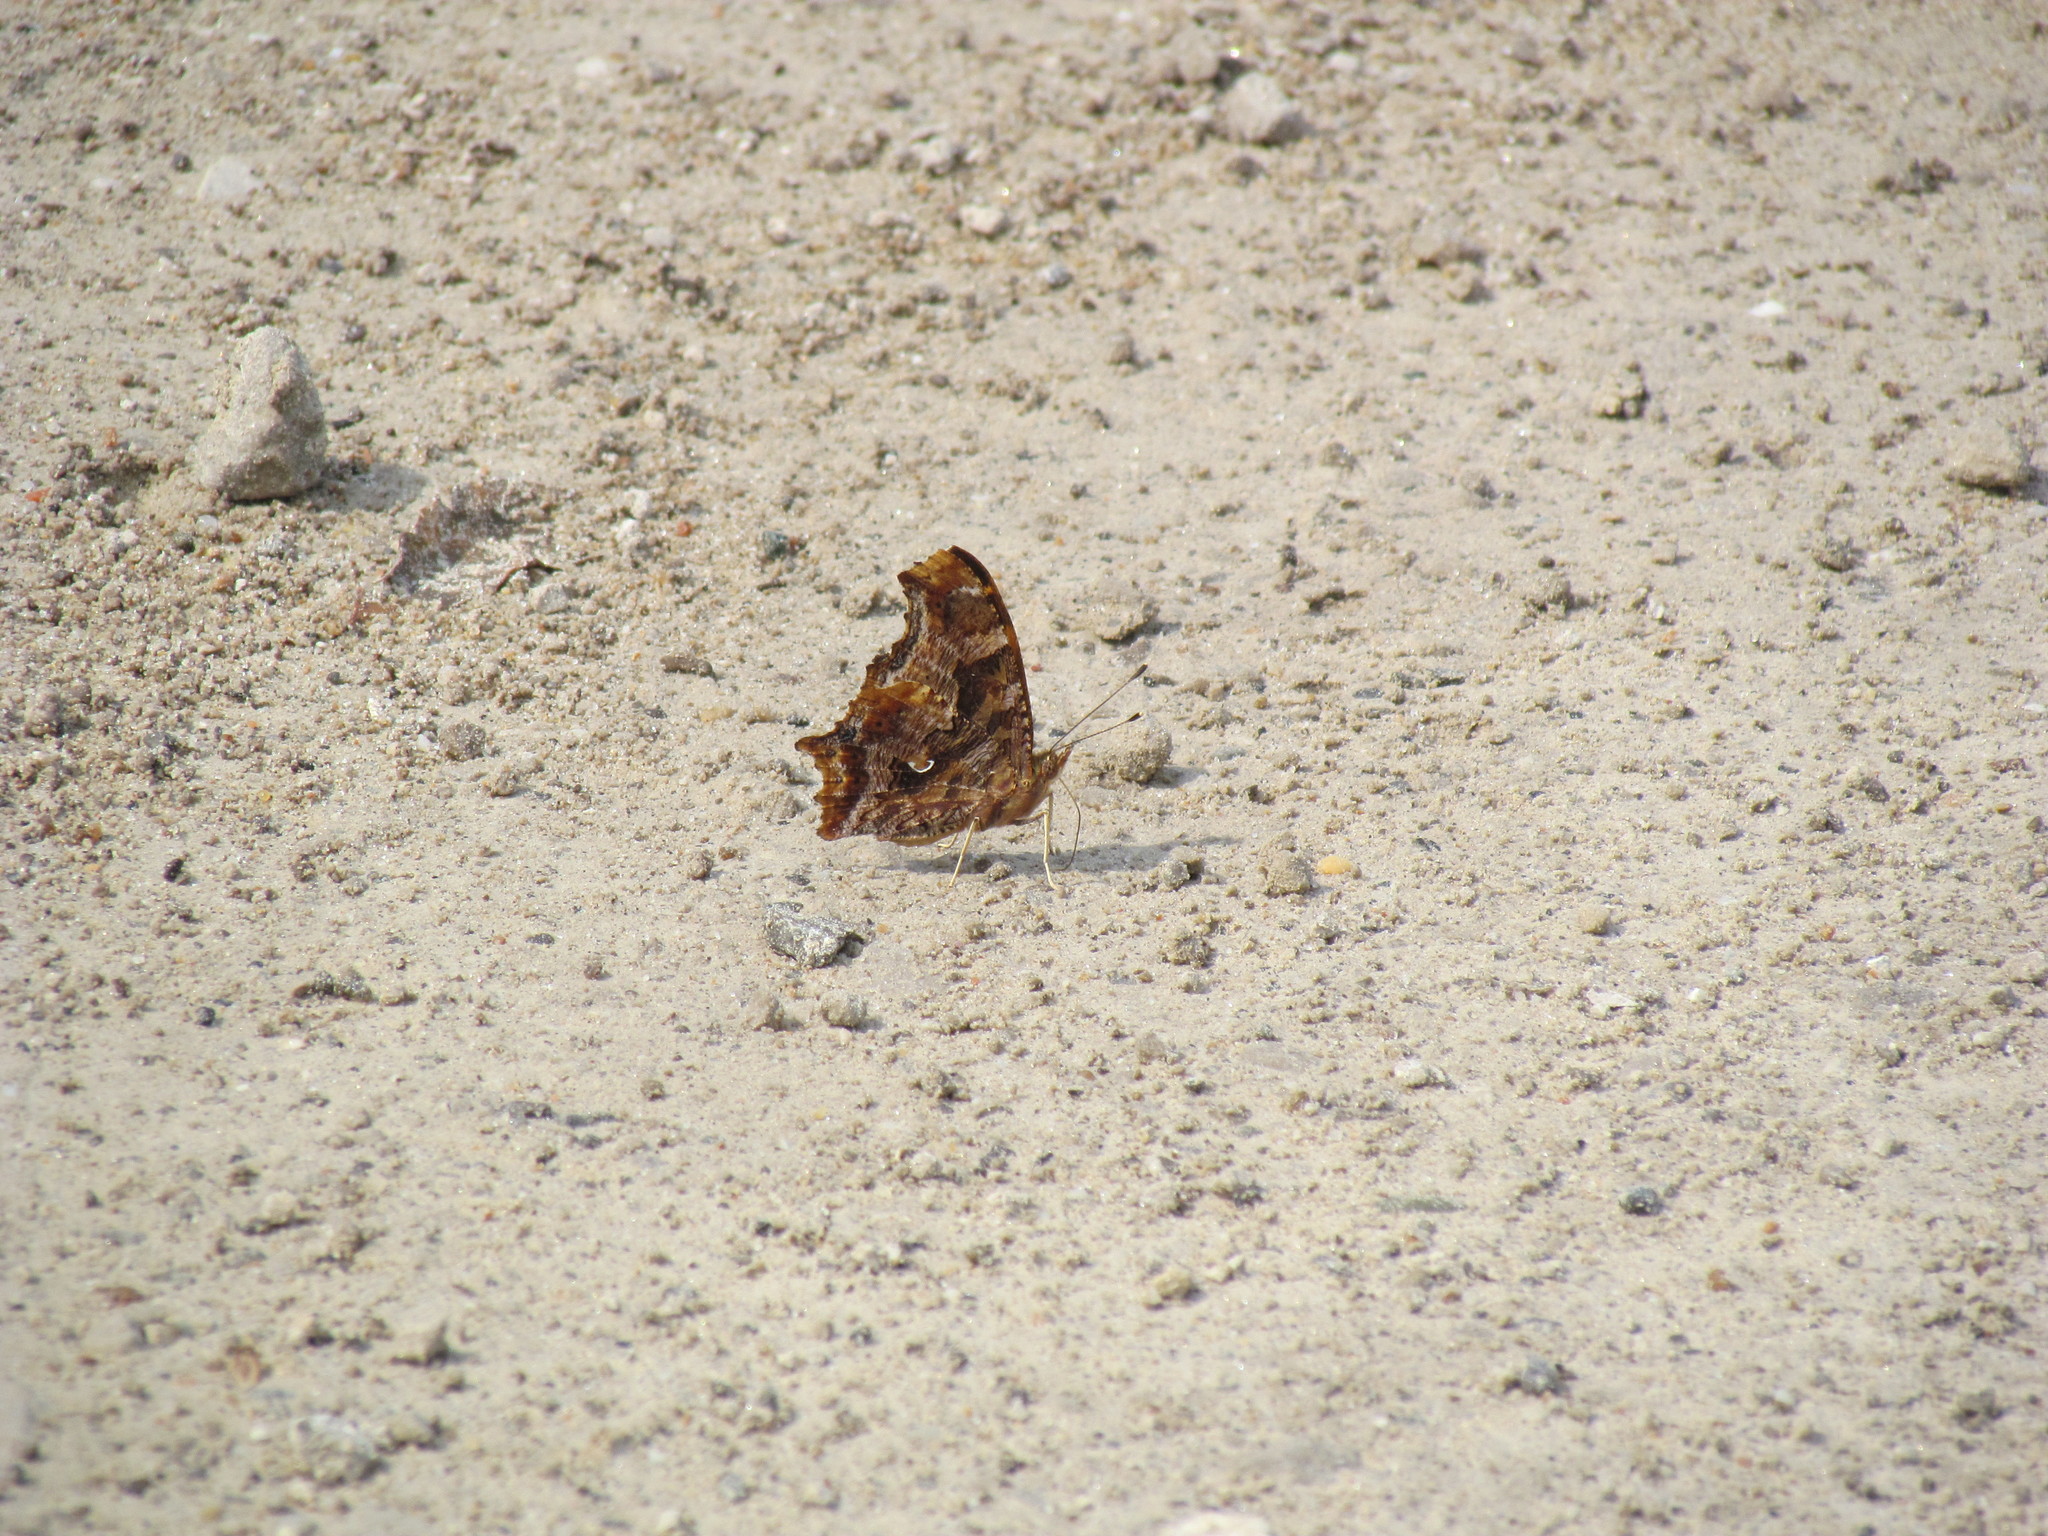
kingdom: Animalia
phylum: Arthropoda
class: Insecta
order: Lepidoptera
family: Nymphalidae
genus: Polygonia
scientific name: Polygonia comma
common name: Eastern comma
